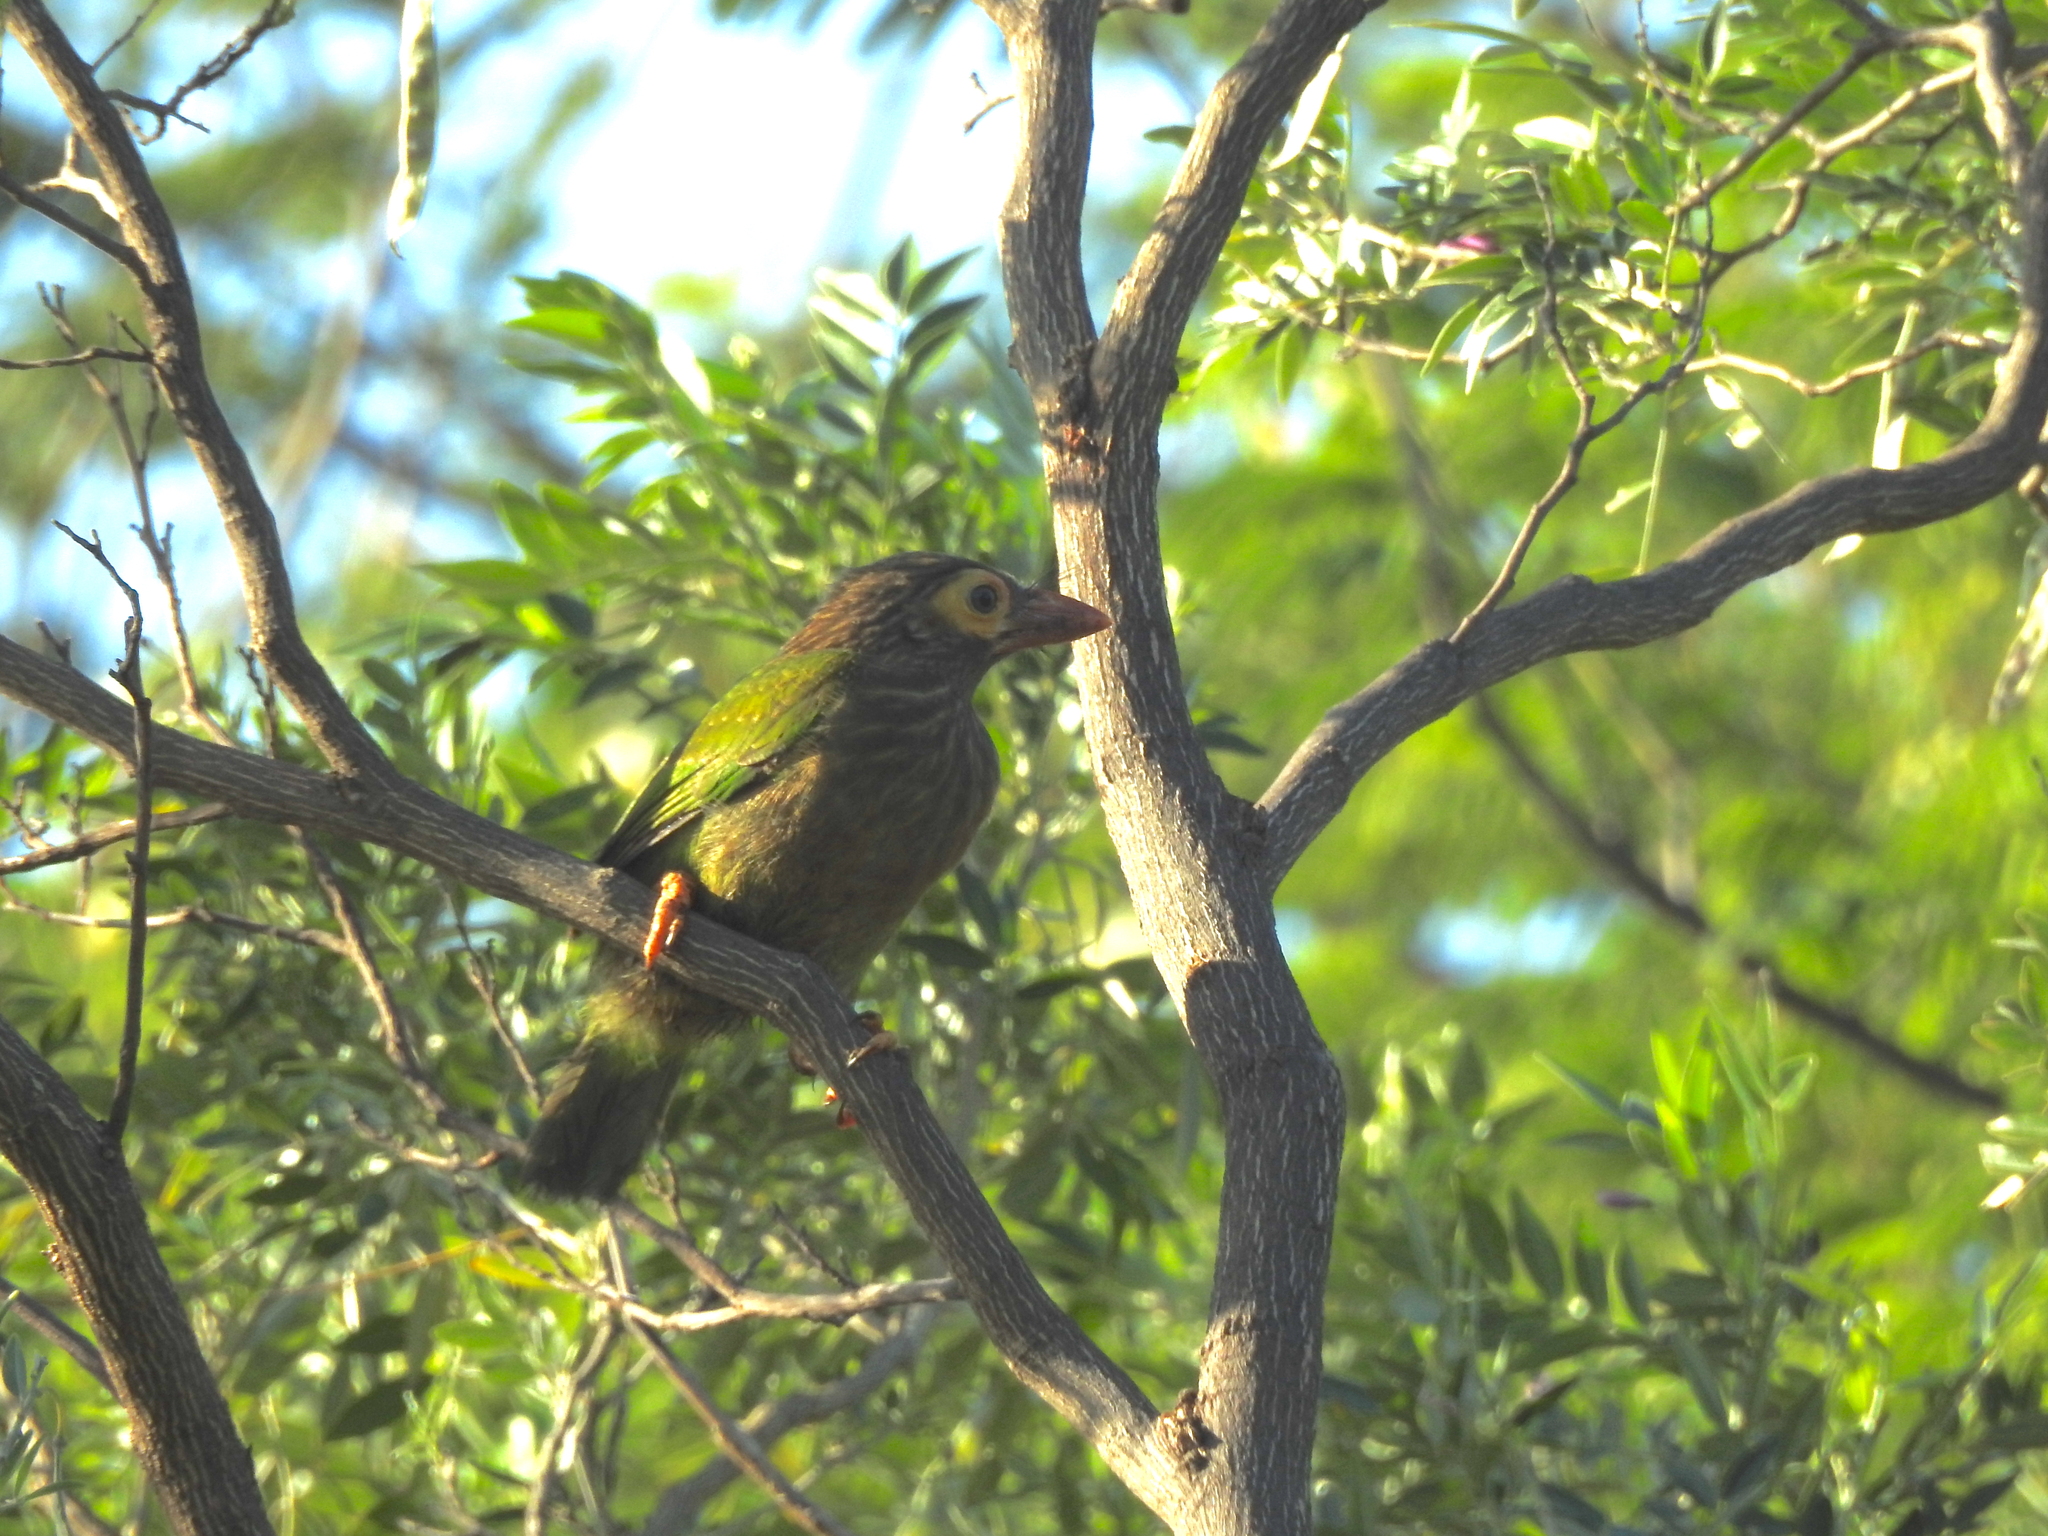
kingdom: Animalia
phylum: Chordata
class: Aves
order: Piciformes
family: Megalaimidae
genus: Psilopogon
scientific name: Psilopogon zeylanicus
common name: Brown-headed barbet
